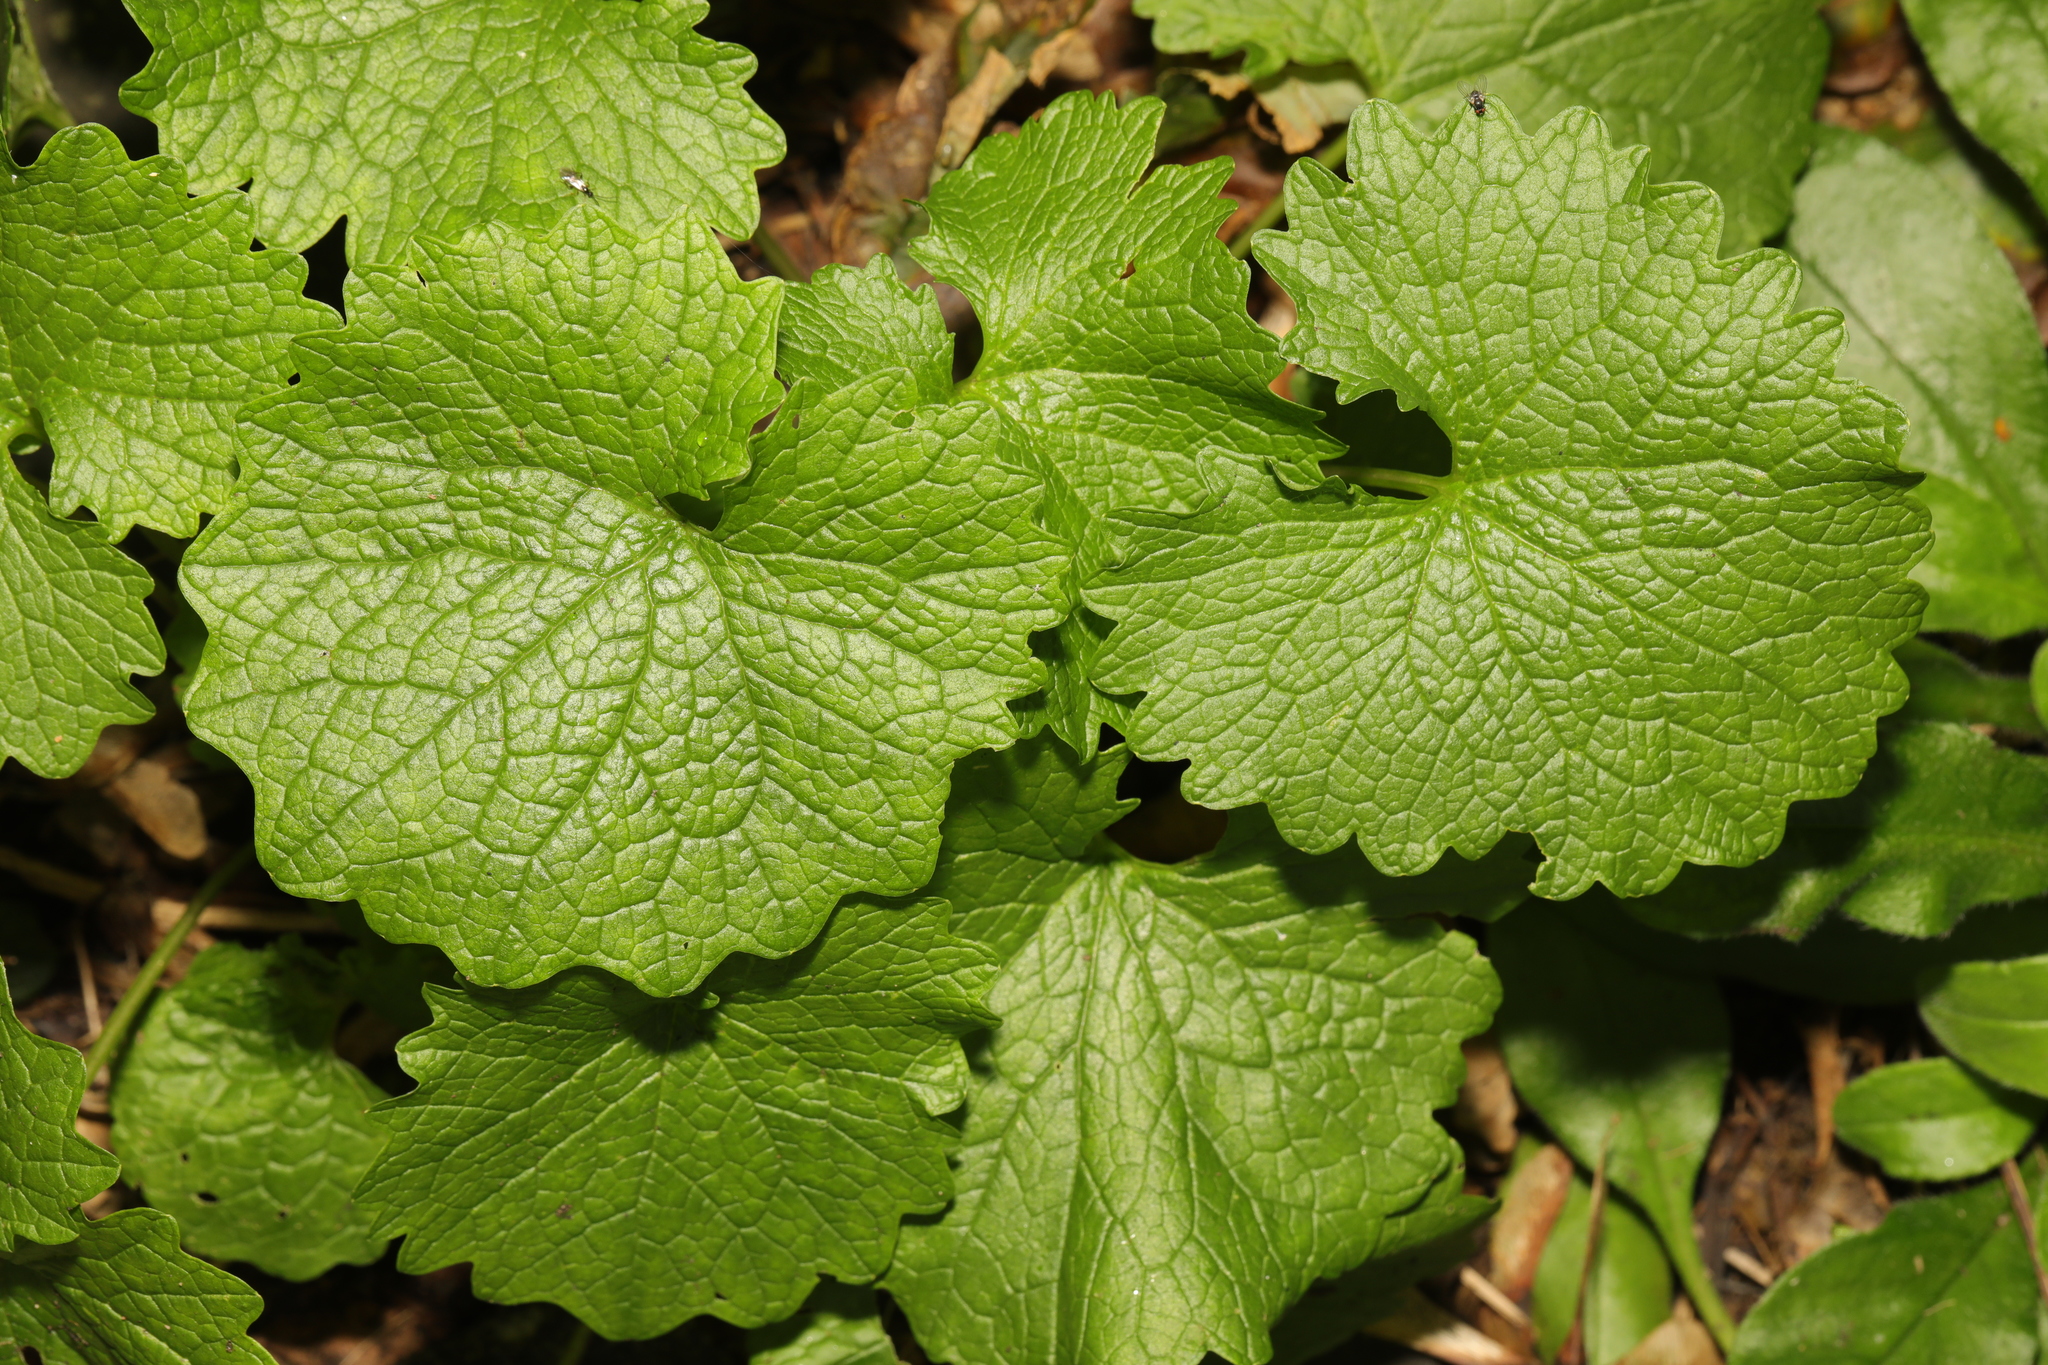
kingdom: Plantae
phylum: Tracheophyta
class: Magnoliopsida
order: Brassicales
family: Brassicaceae
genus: Alliaria
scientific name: Alliaria petiolata
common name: Garlic mustard
